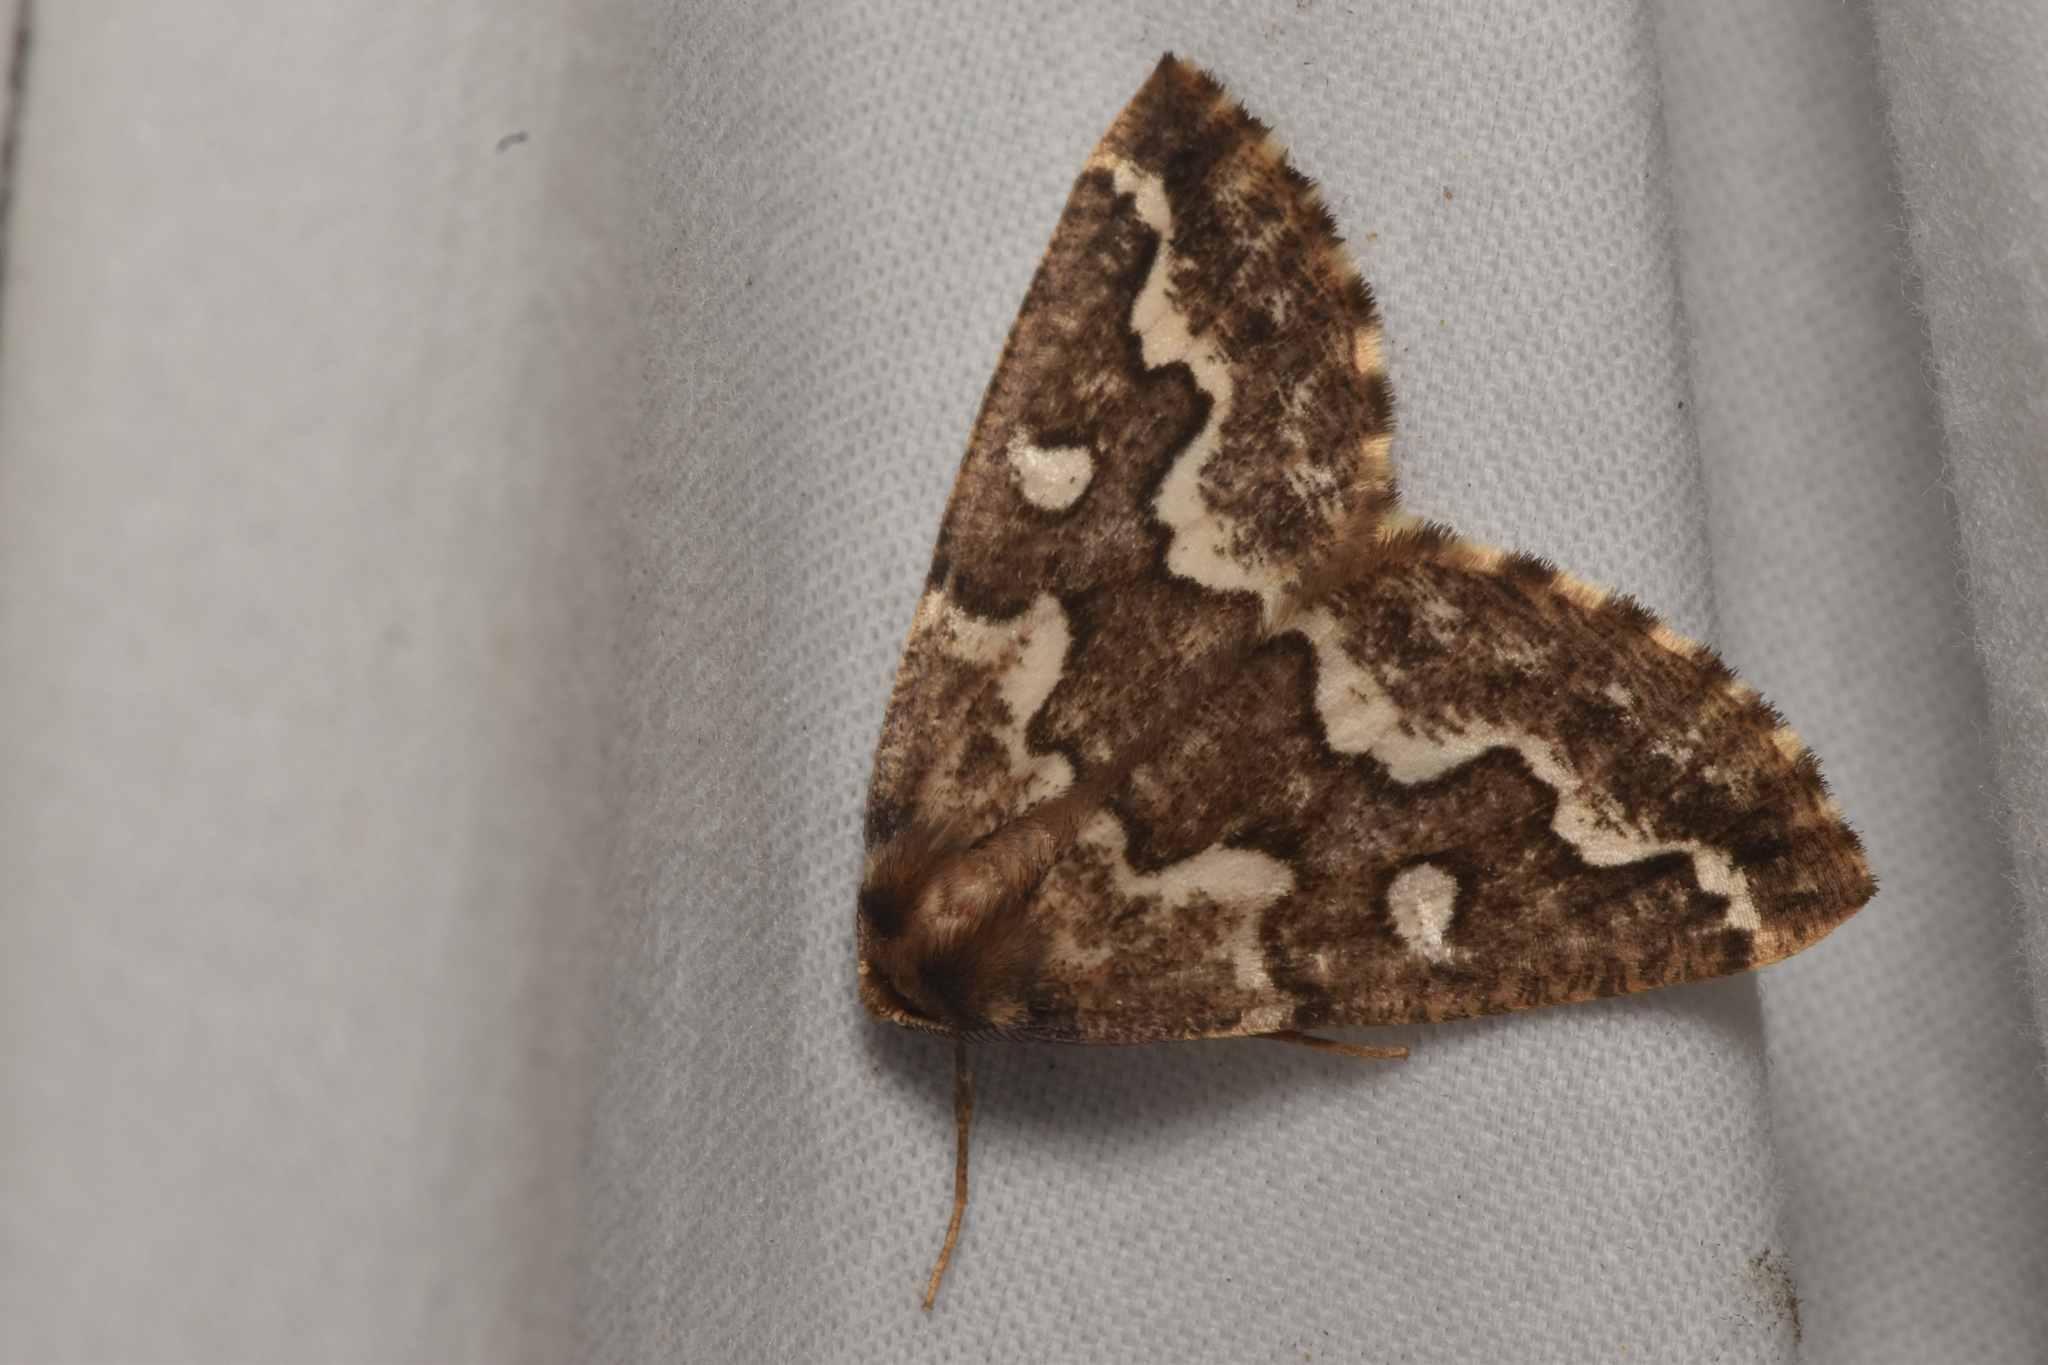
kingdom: Animalia
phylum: Arthropoda
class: Insecta
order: Lepidoptera
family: Geometridae
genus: Caripeta
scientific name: Caripeta divisata
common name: Gray spruce looper
